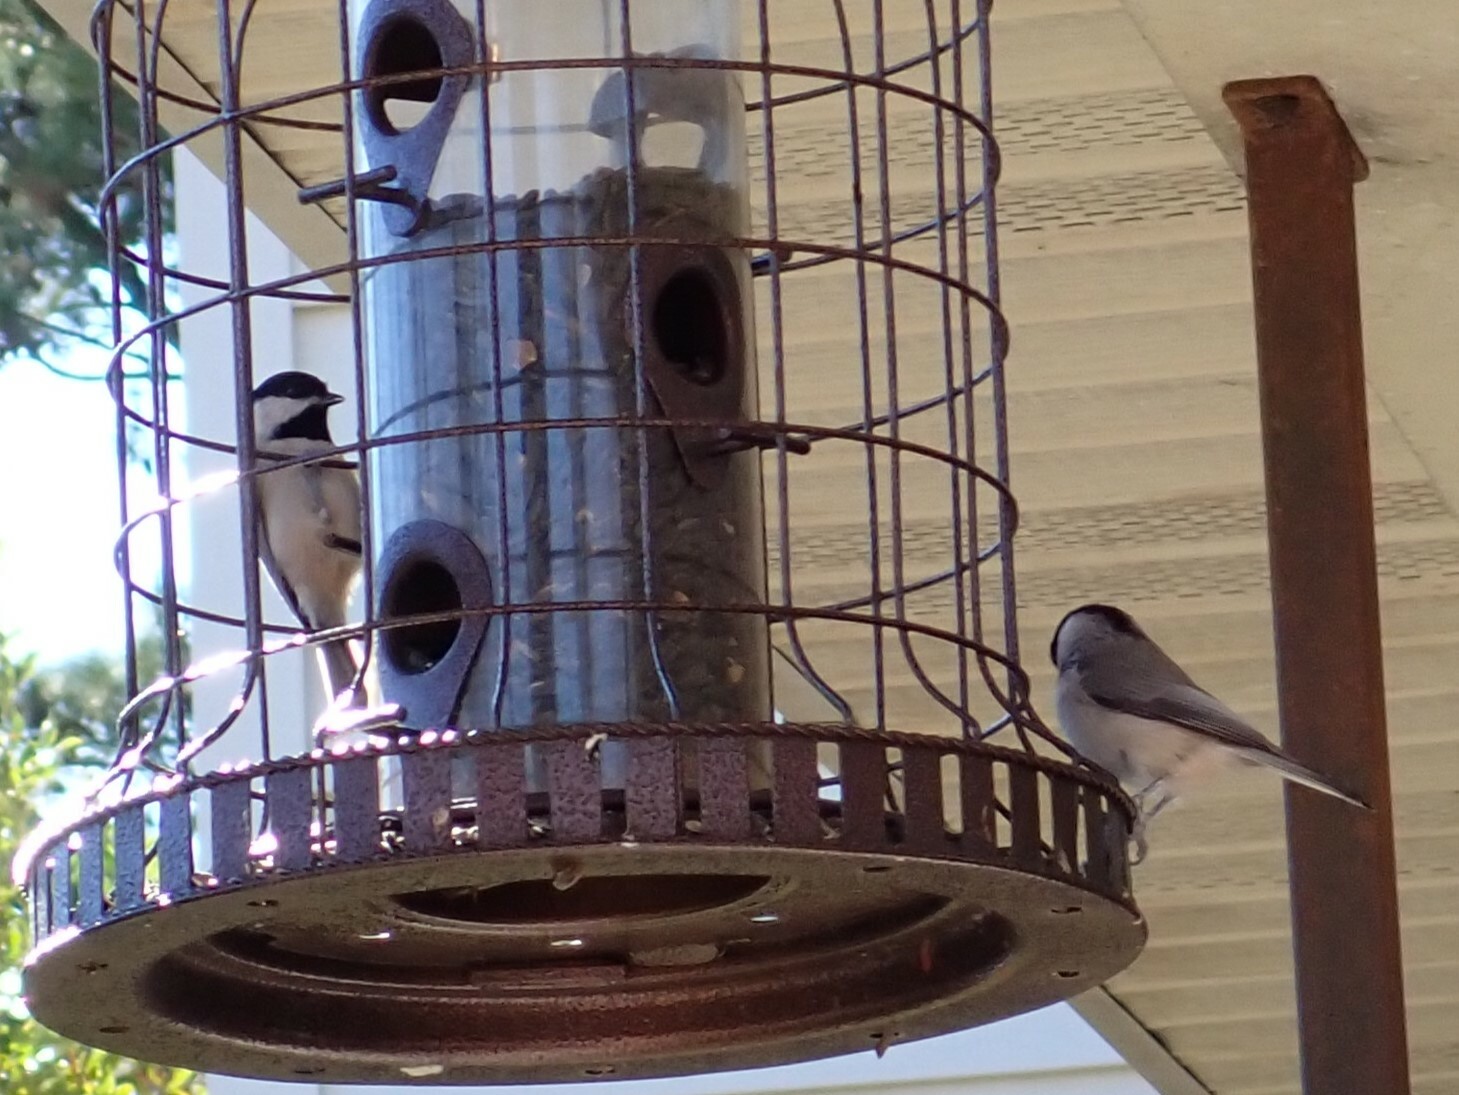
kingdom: Animalia
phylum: Chordata
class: Aves
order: Passeriformes
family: Paridae
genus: Poecile
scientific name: Poecile carolinensis
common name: Carolina chickadee
